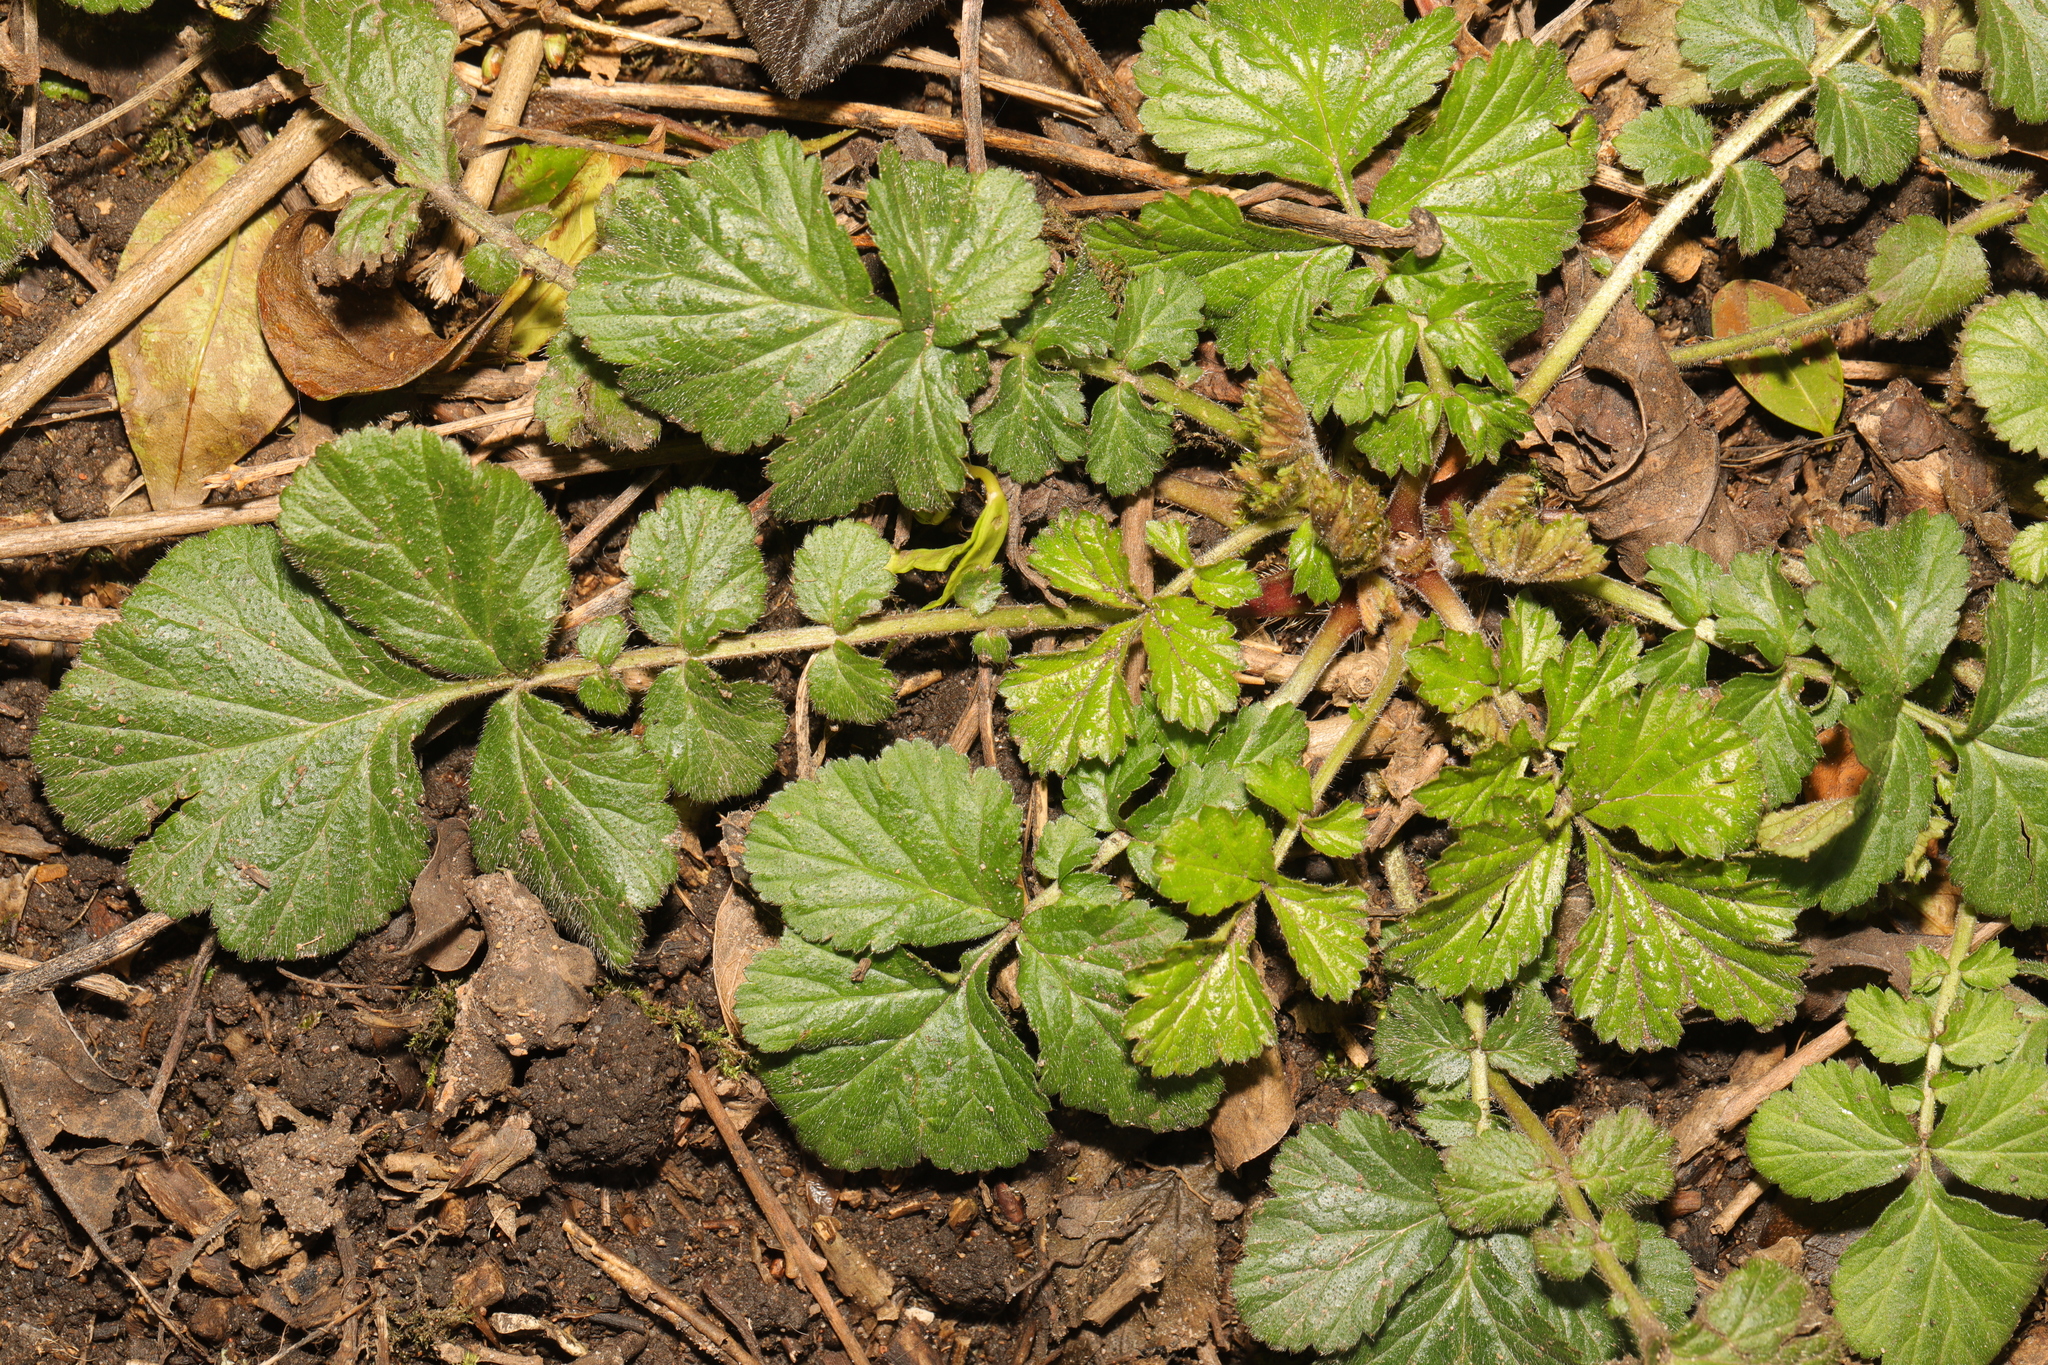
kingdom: Plantae
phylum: Tracheophyta
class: Magnoliopsida
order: Rosales
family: Rosaceae
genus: Geum
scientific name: Geum urbanum
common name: Wood avens
